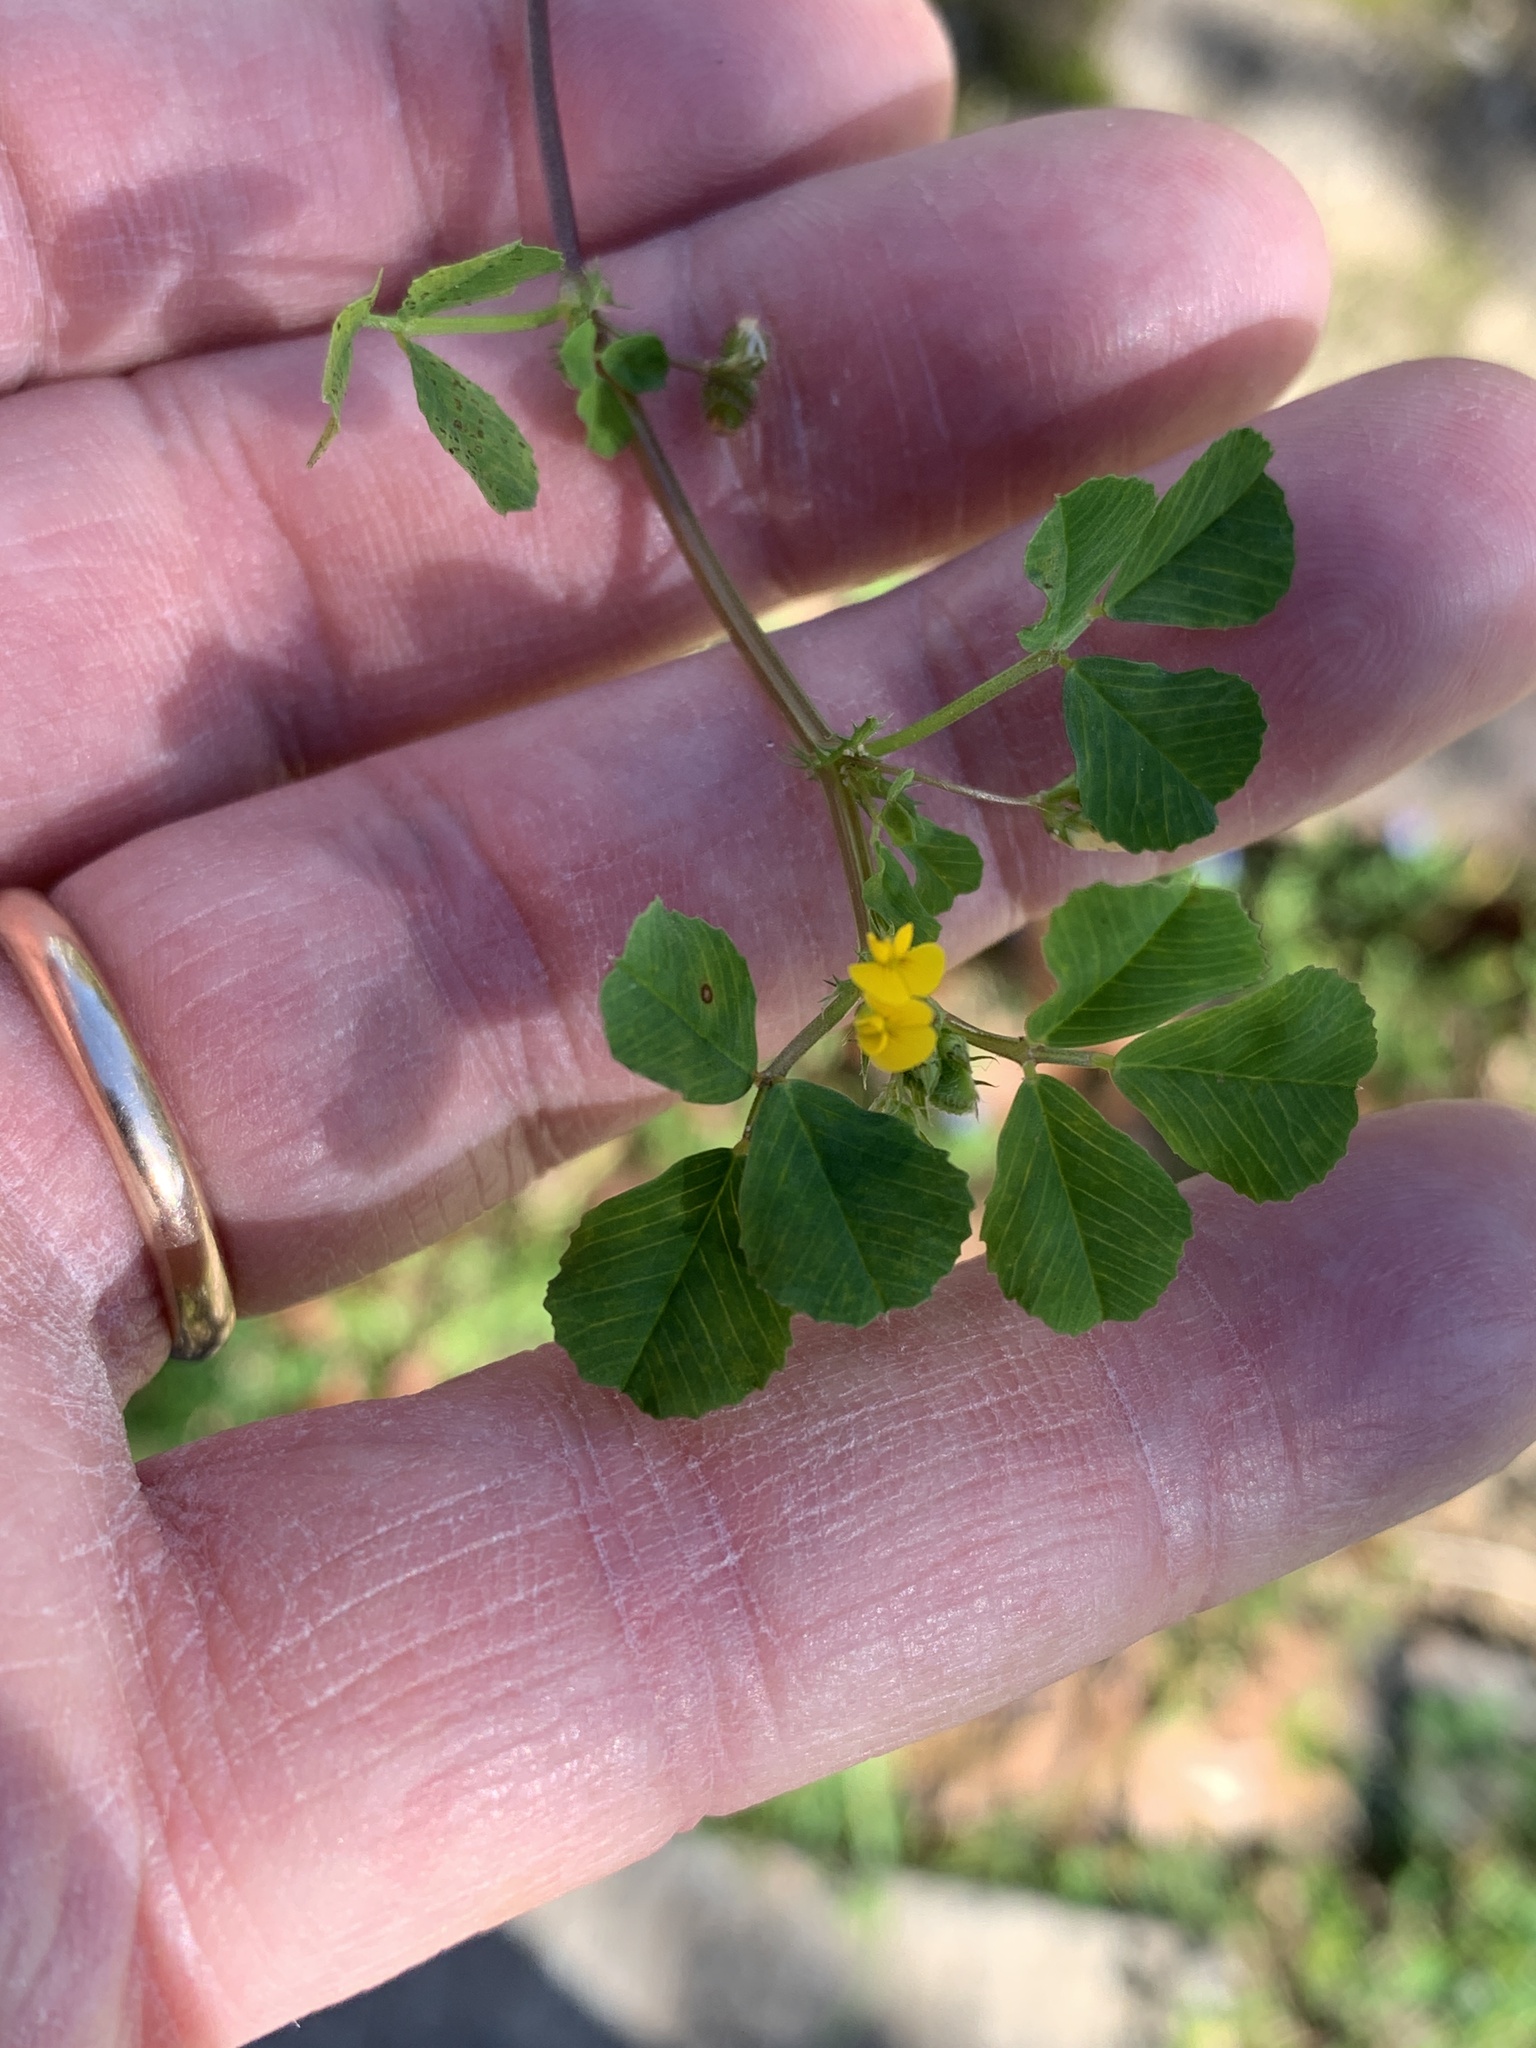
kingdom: Plantae
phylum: Tracheophyta
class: Magnoliopsida
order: Fabales
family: Fabaceae
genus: Medicago
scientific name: Medicago polymorpha
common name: Burclover
